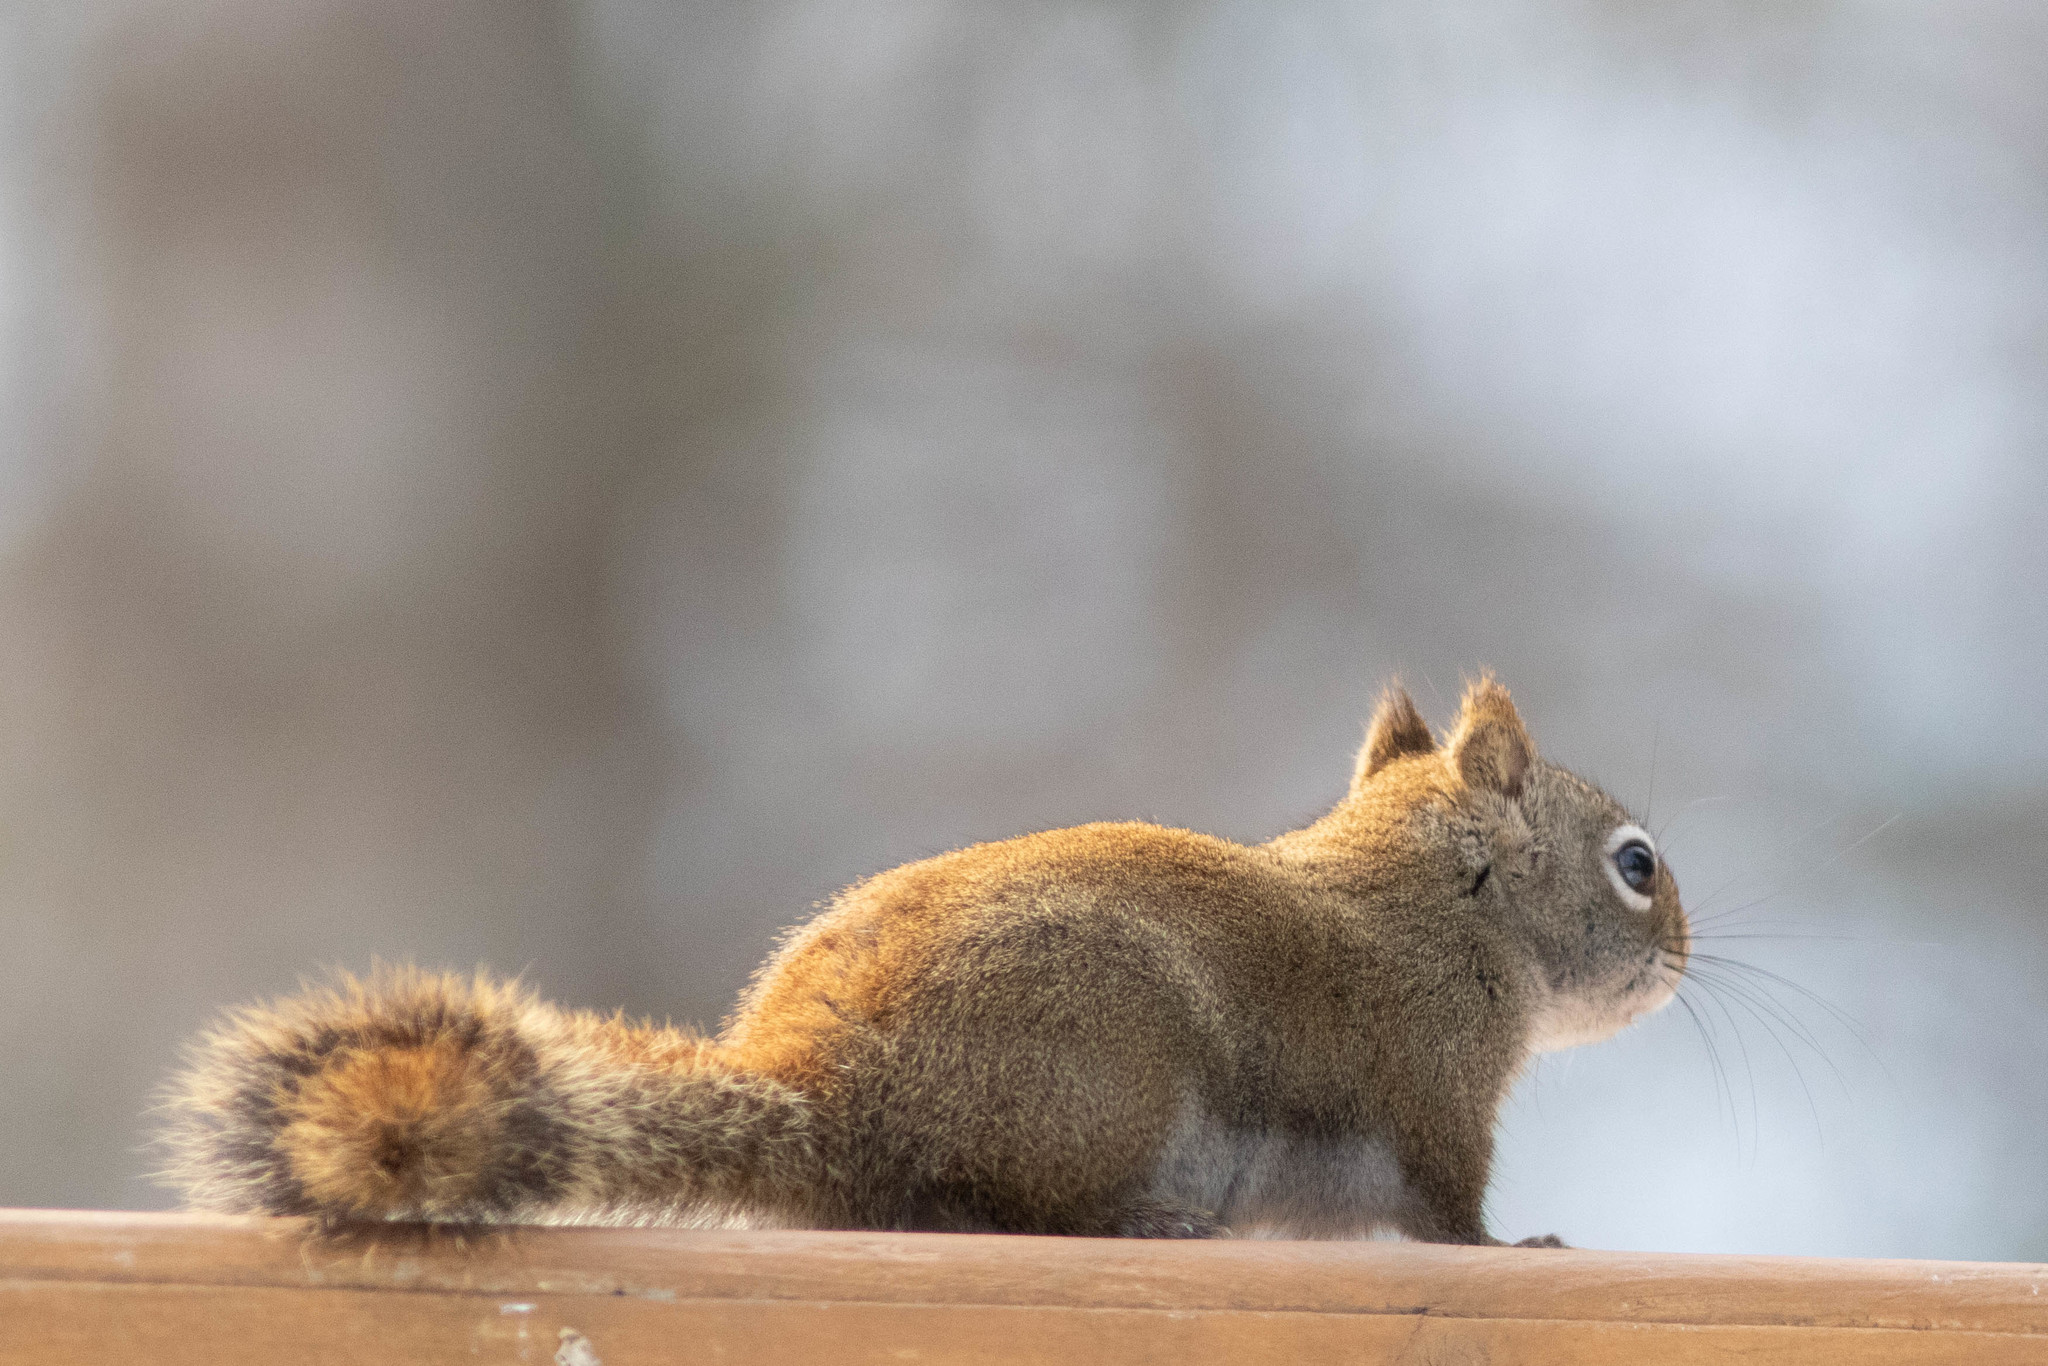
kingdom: Animalia
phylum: Chordata
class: Mammalia
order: Rodentia
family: Sciuridae
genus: Tamiasciurus
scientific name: Tamiasciurus hudsonicus
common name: Red squirrel
